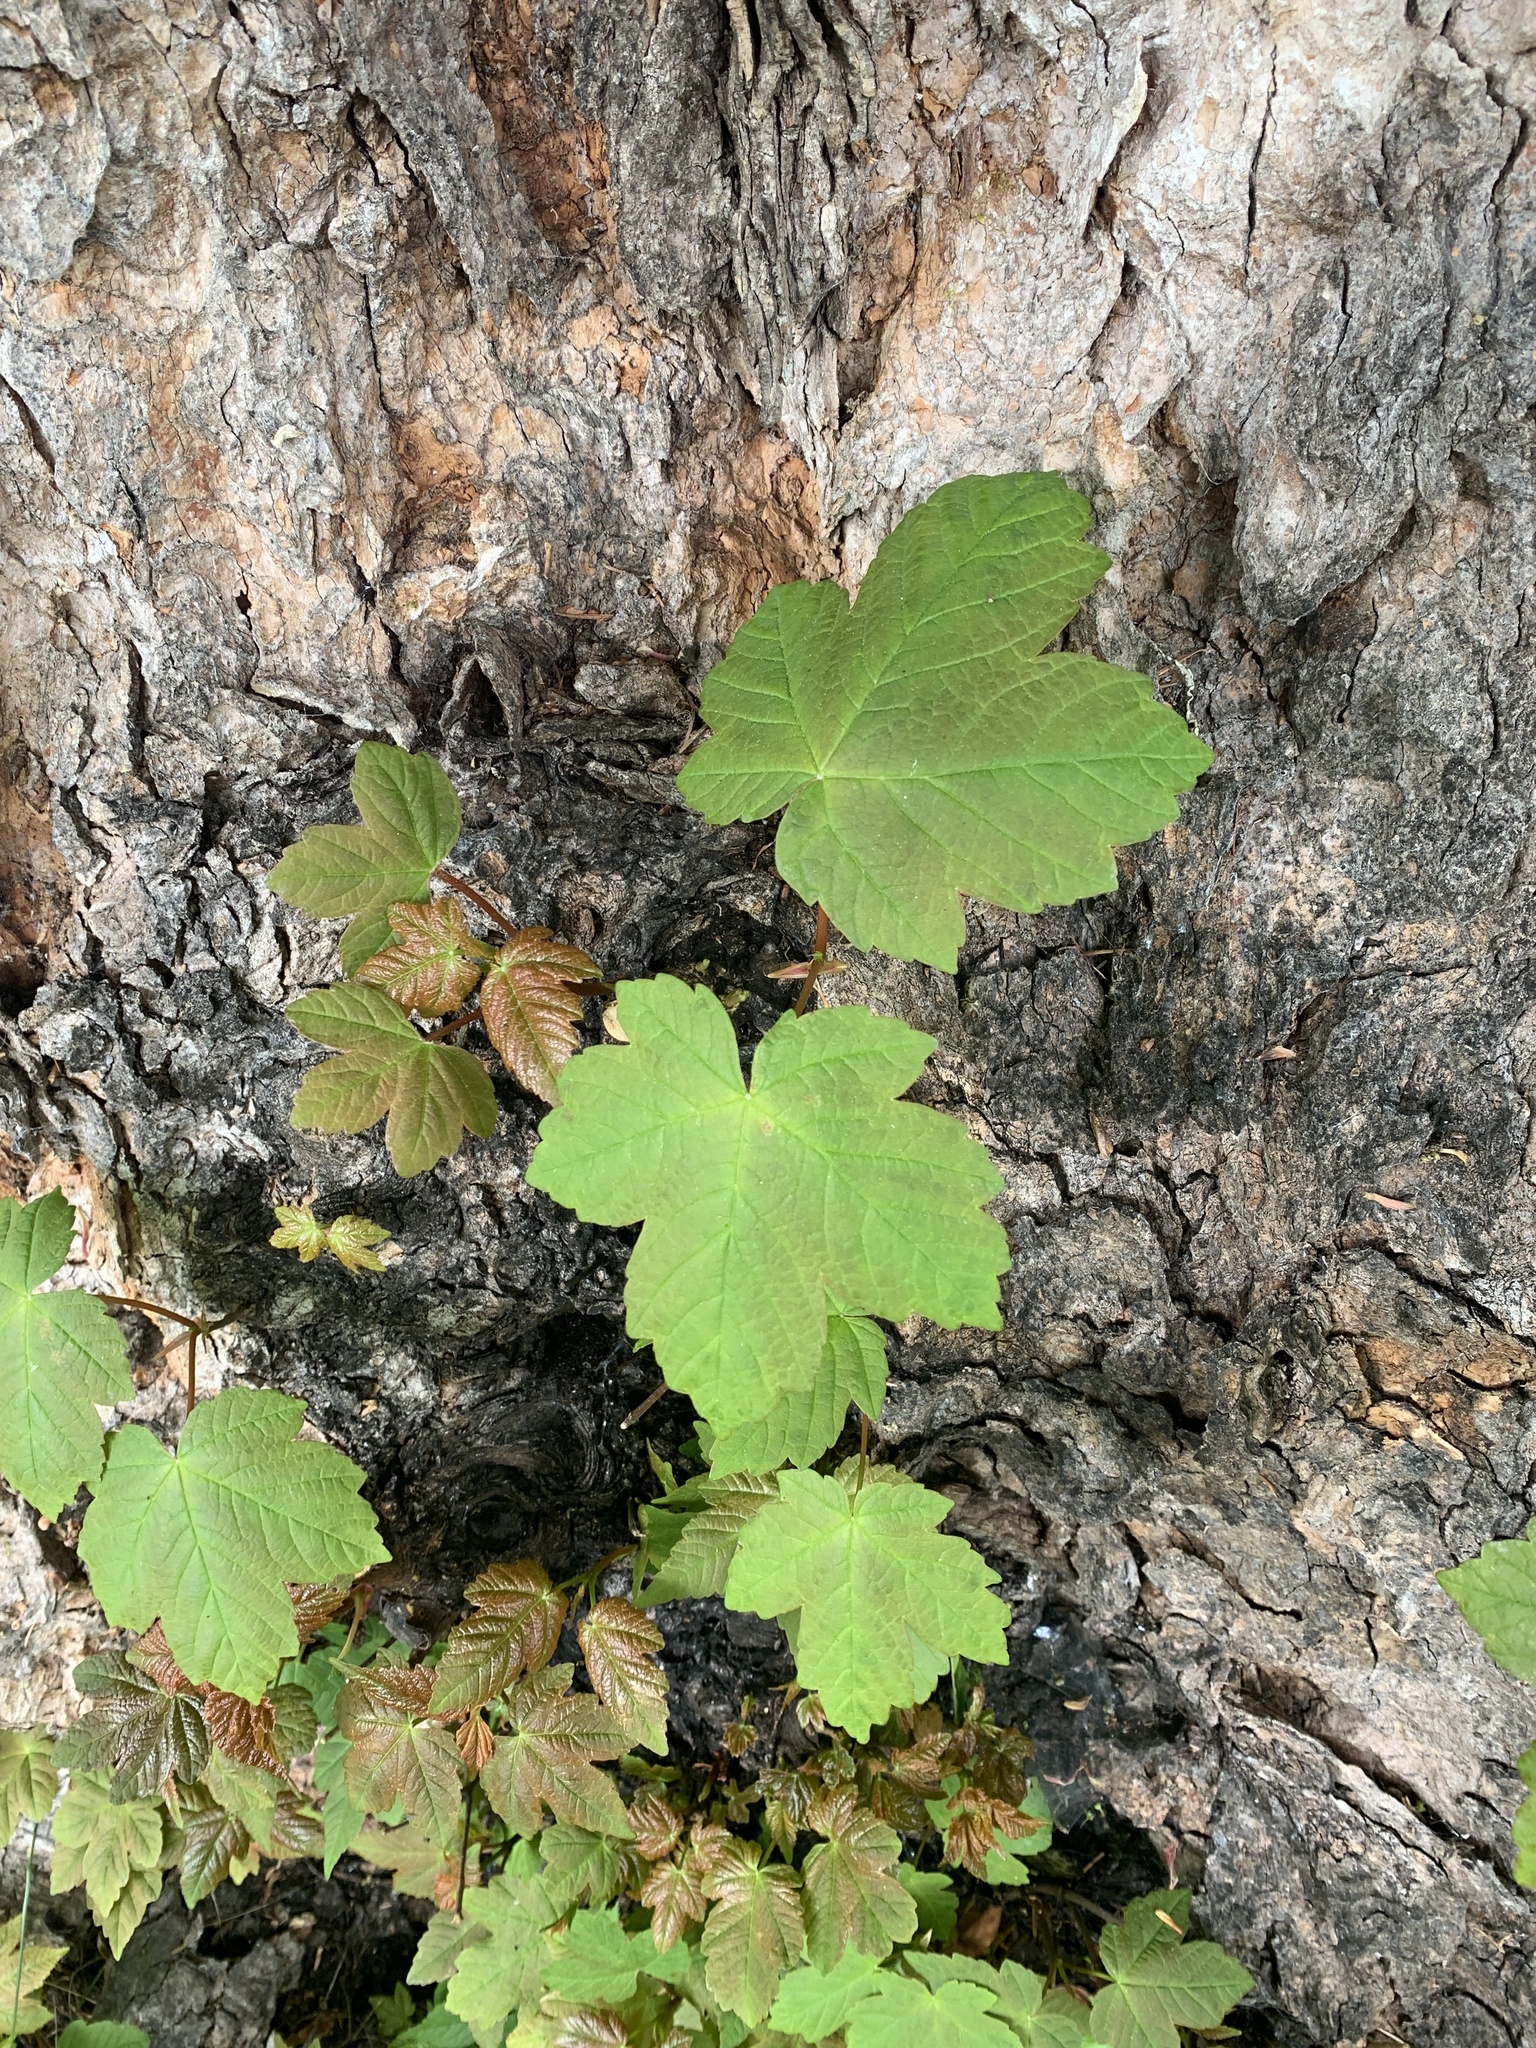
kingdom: Plantae
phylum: Tracheophyta
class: Magnoliopsida
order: Sapindales
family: Sapindaceae
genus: Acer
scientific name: Acer pseudoplatanus
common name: Sycamore
